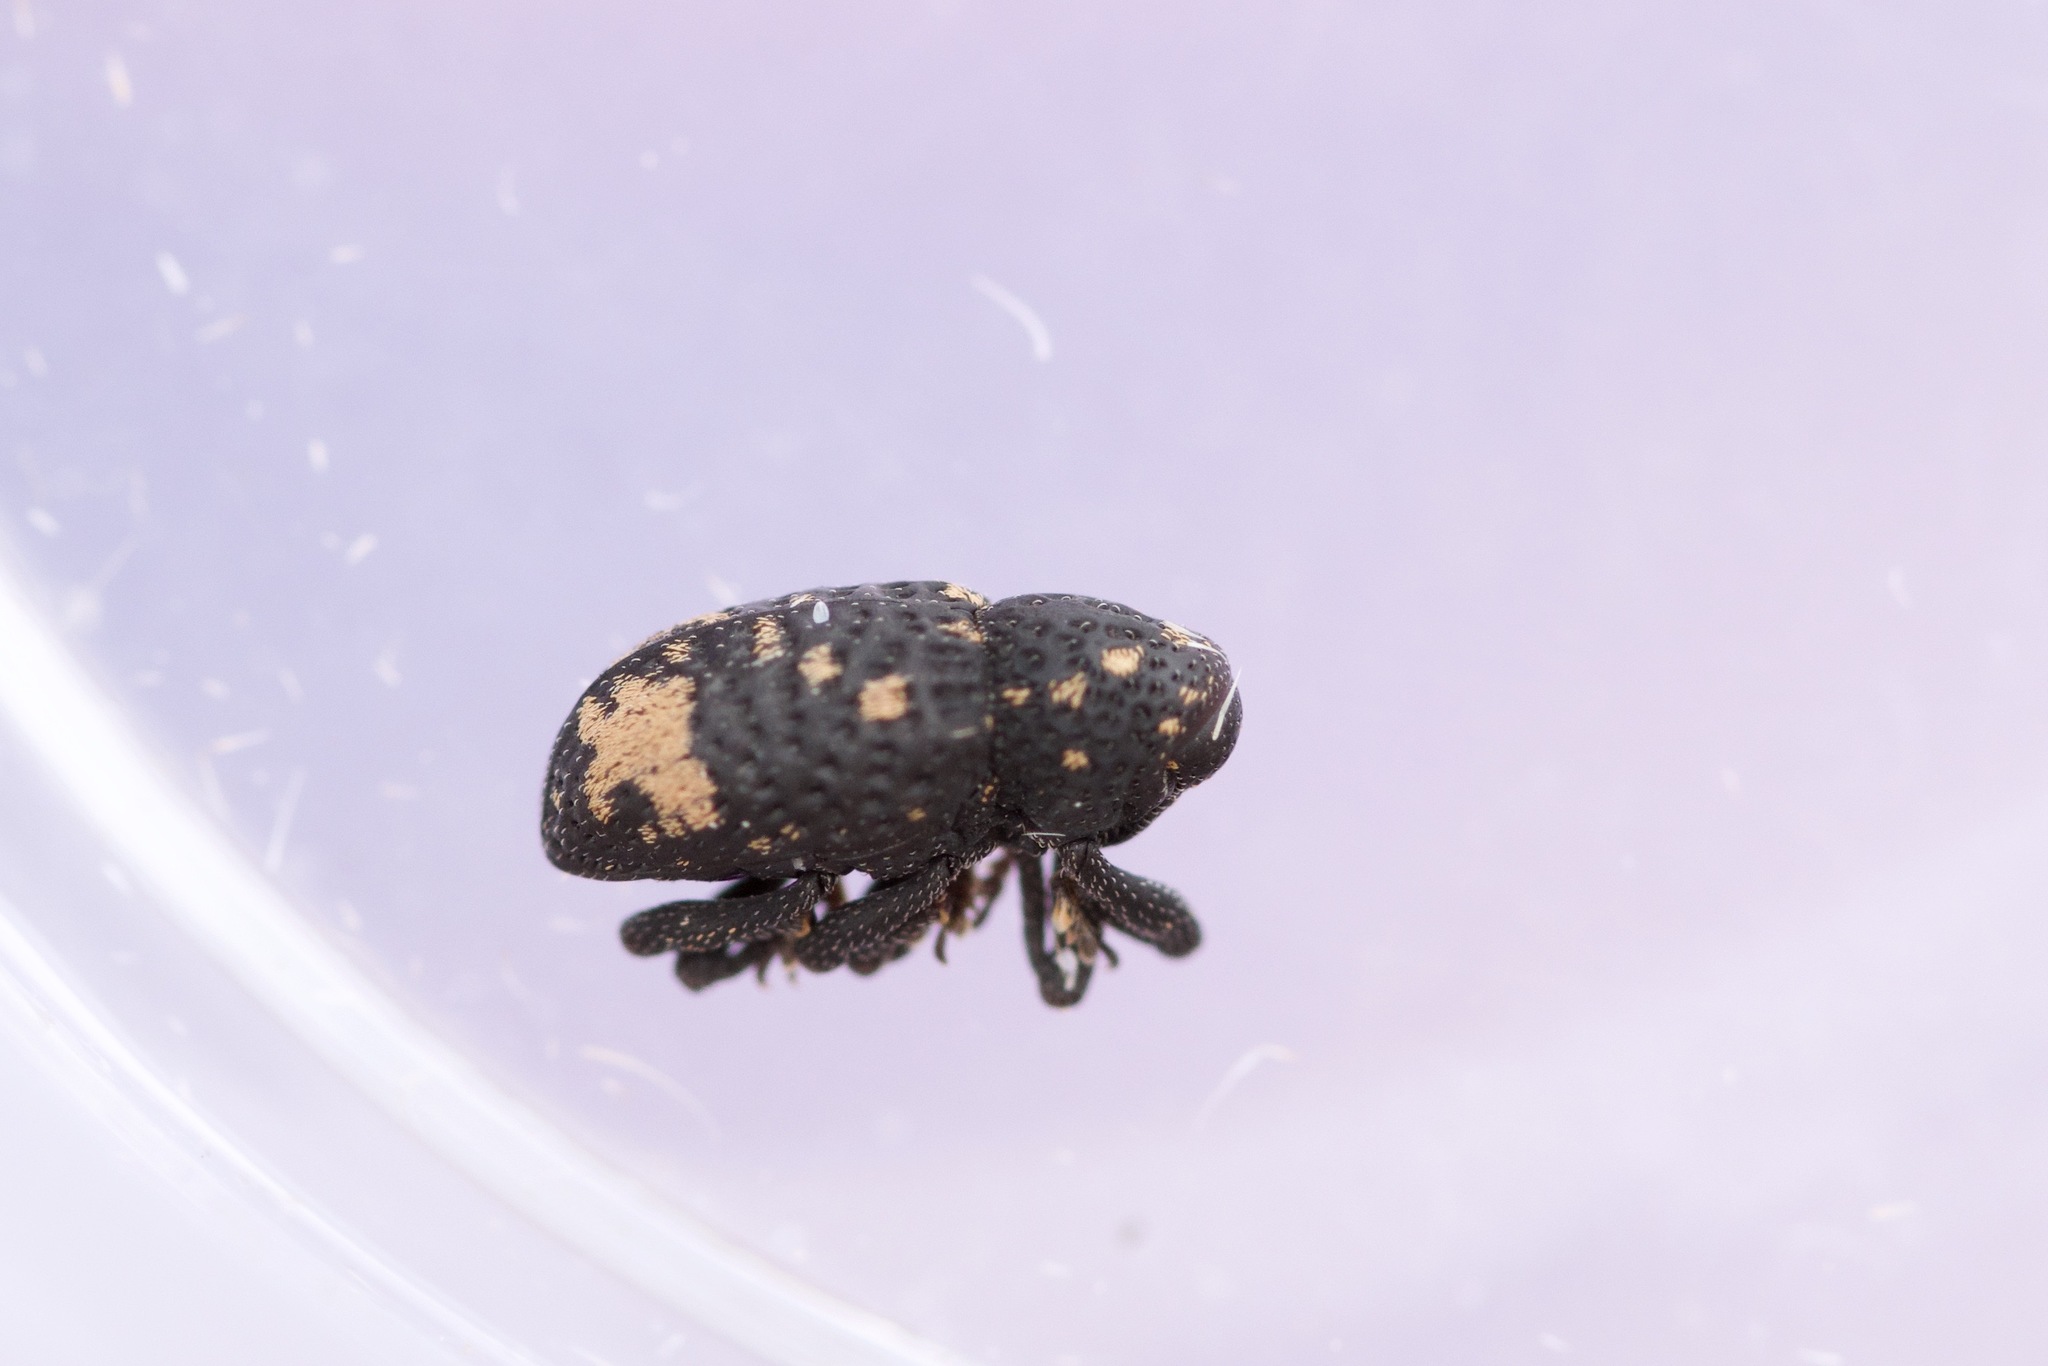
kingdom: Animalia
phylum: Arthropoda
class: Insecta
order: Coleoptera
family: Curculionidae
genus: Tyloderma
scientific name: Tyloderma foveolatum
